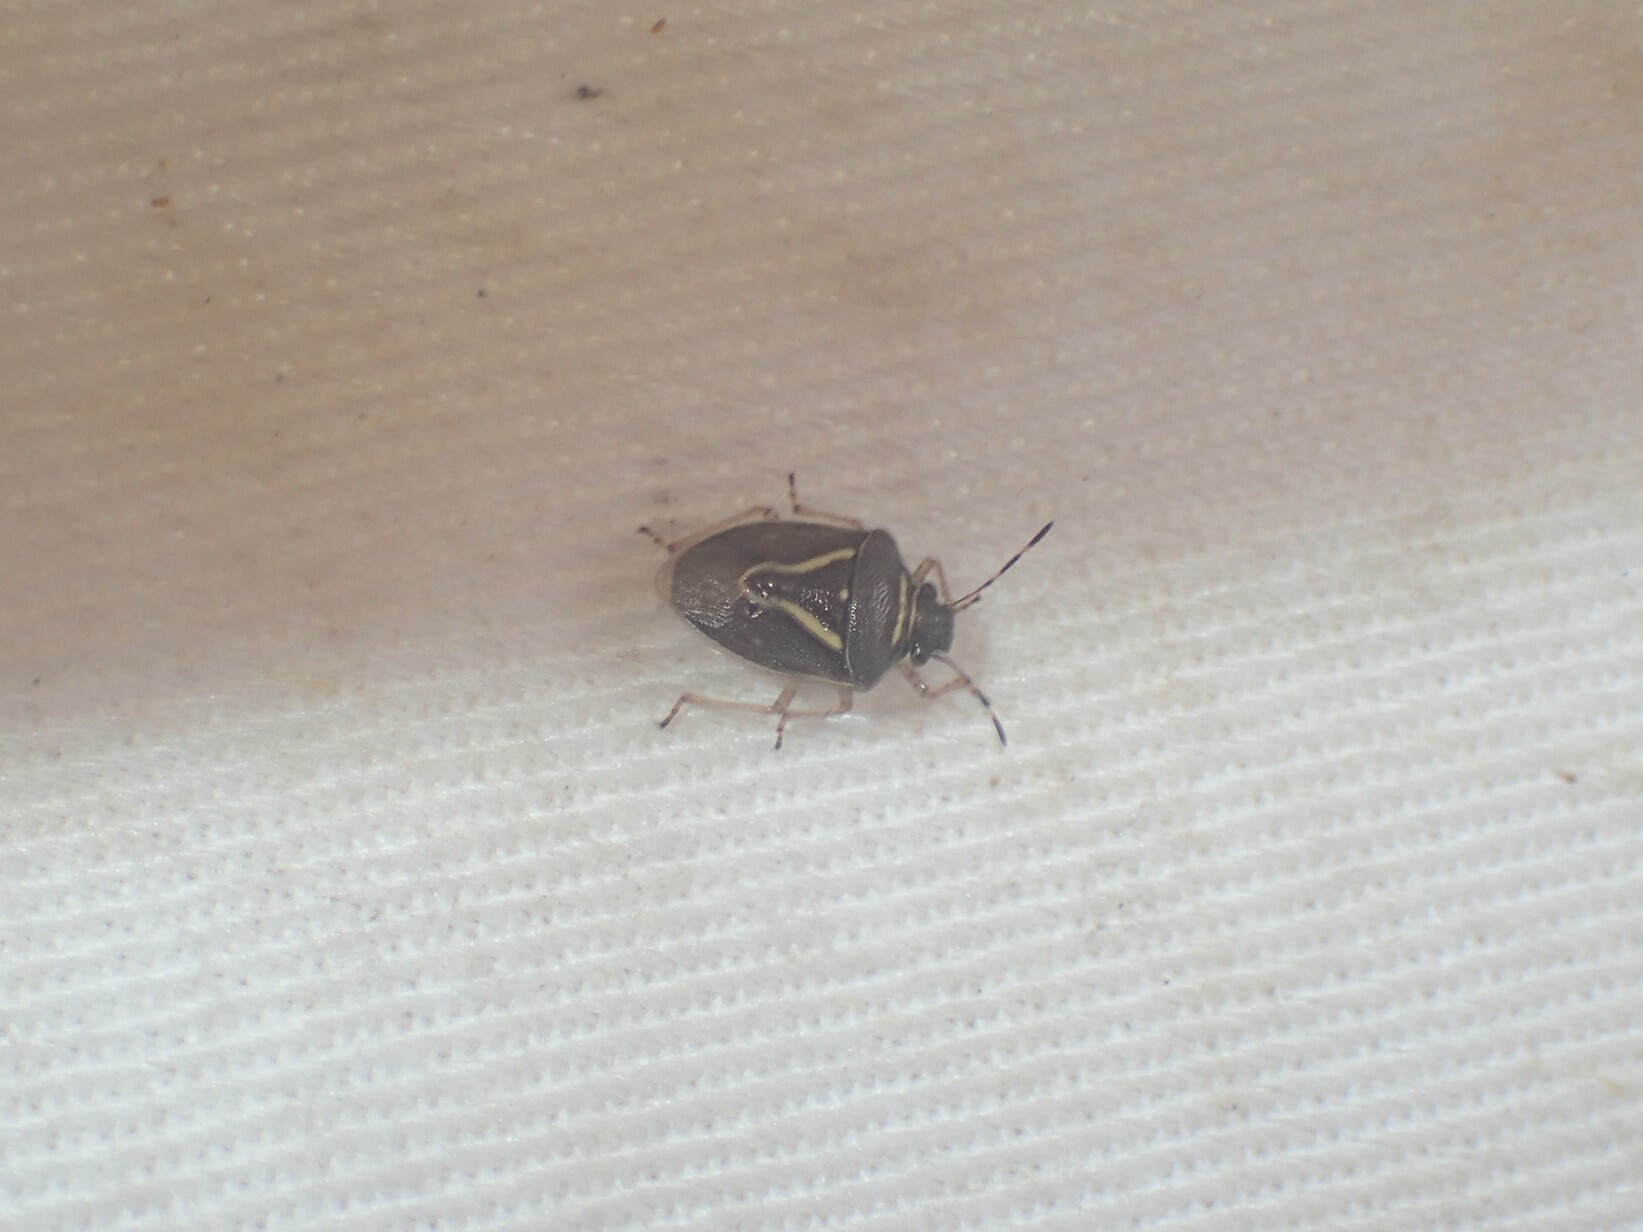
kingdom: Animalia
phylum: Arthropoda
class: Insecta
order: Hemiptera
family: Pentatomidae
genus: Mormidea
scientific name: Mormidea lugens
